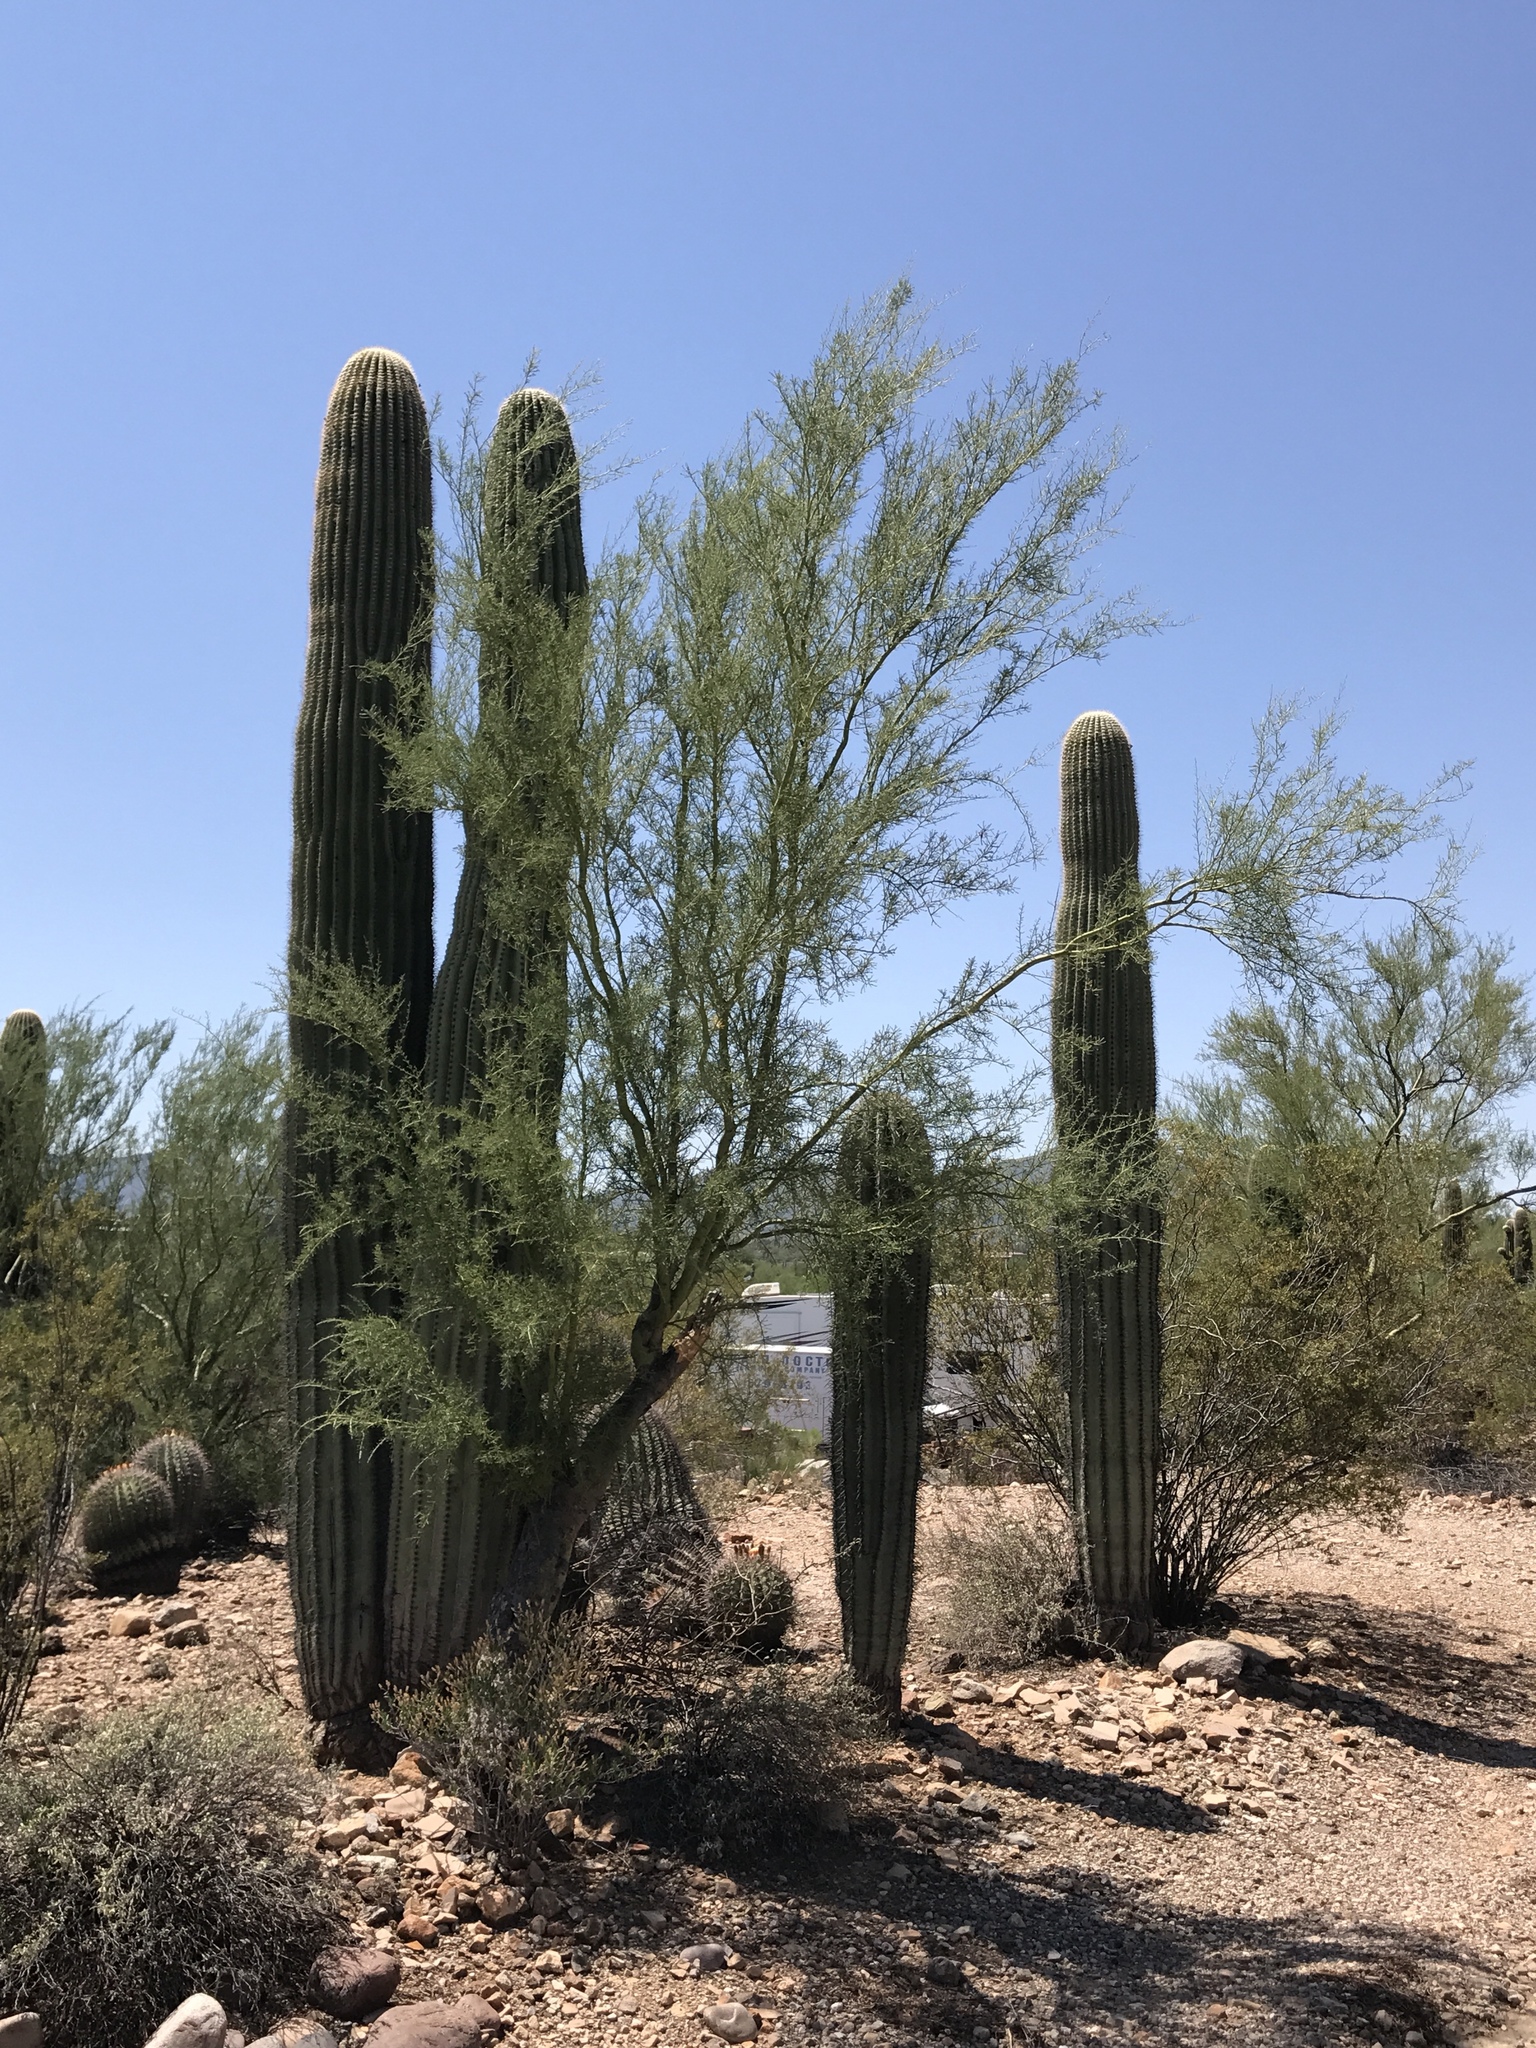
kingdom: Plantae
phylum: Tracheophyta
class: Magnoliopsida
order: Fabales
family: Fabaceae
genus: Parkinsonia
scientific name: Parkinsonia microphylla
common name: Yellow paloverde
